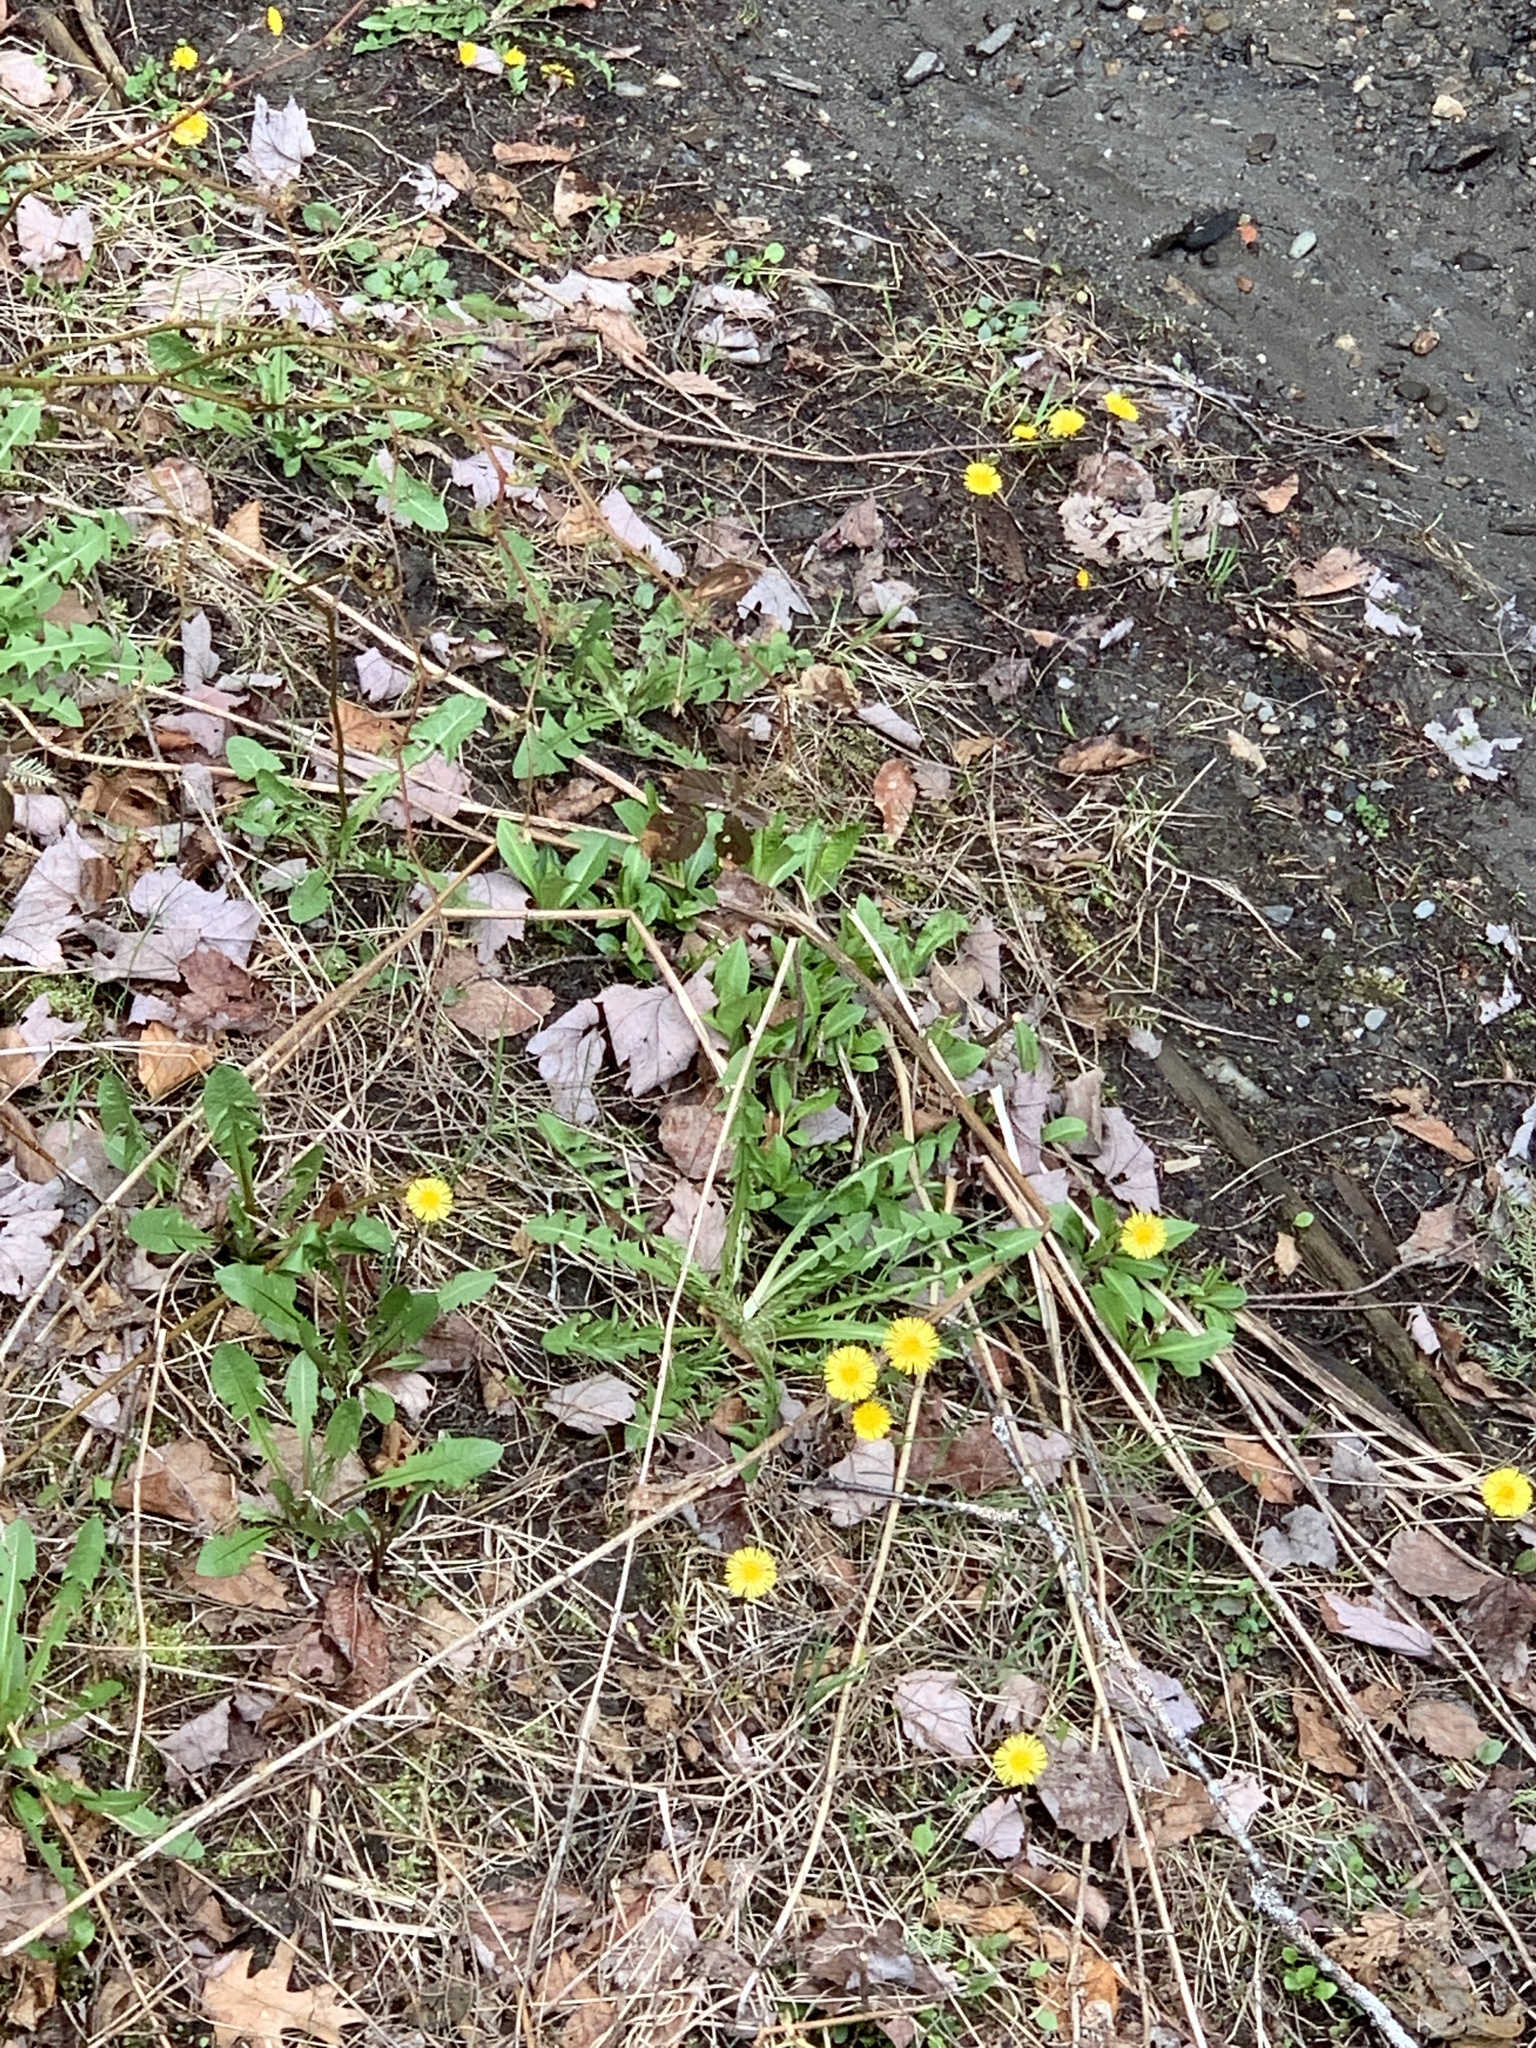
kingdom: Plantae
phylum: Tracheophyta
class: Magnoliopsida
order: Asterales
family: Asteraceae
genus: Tussilago
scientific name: Tussilago farfara
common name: Coltsfoot
